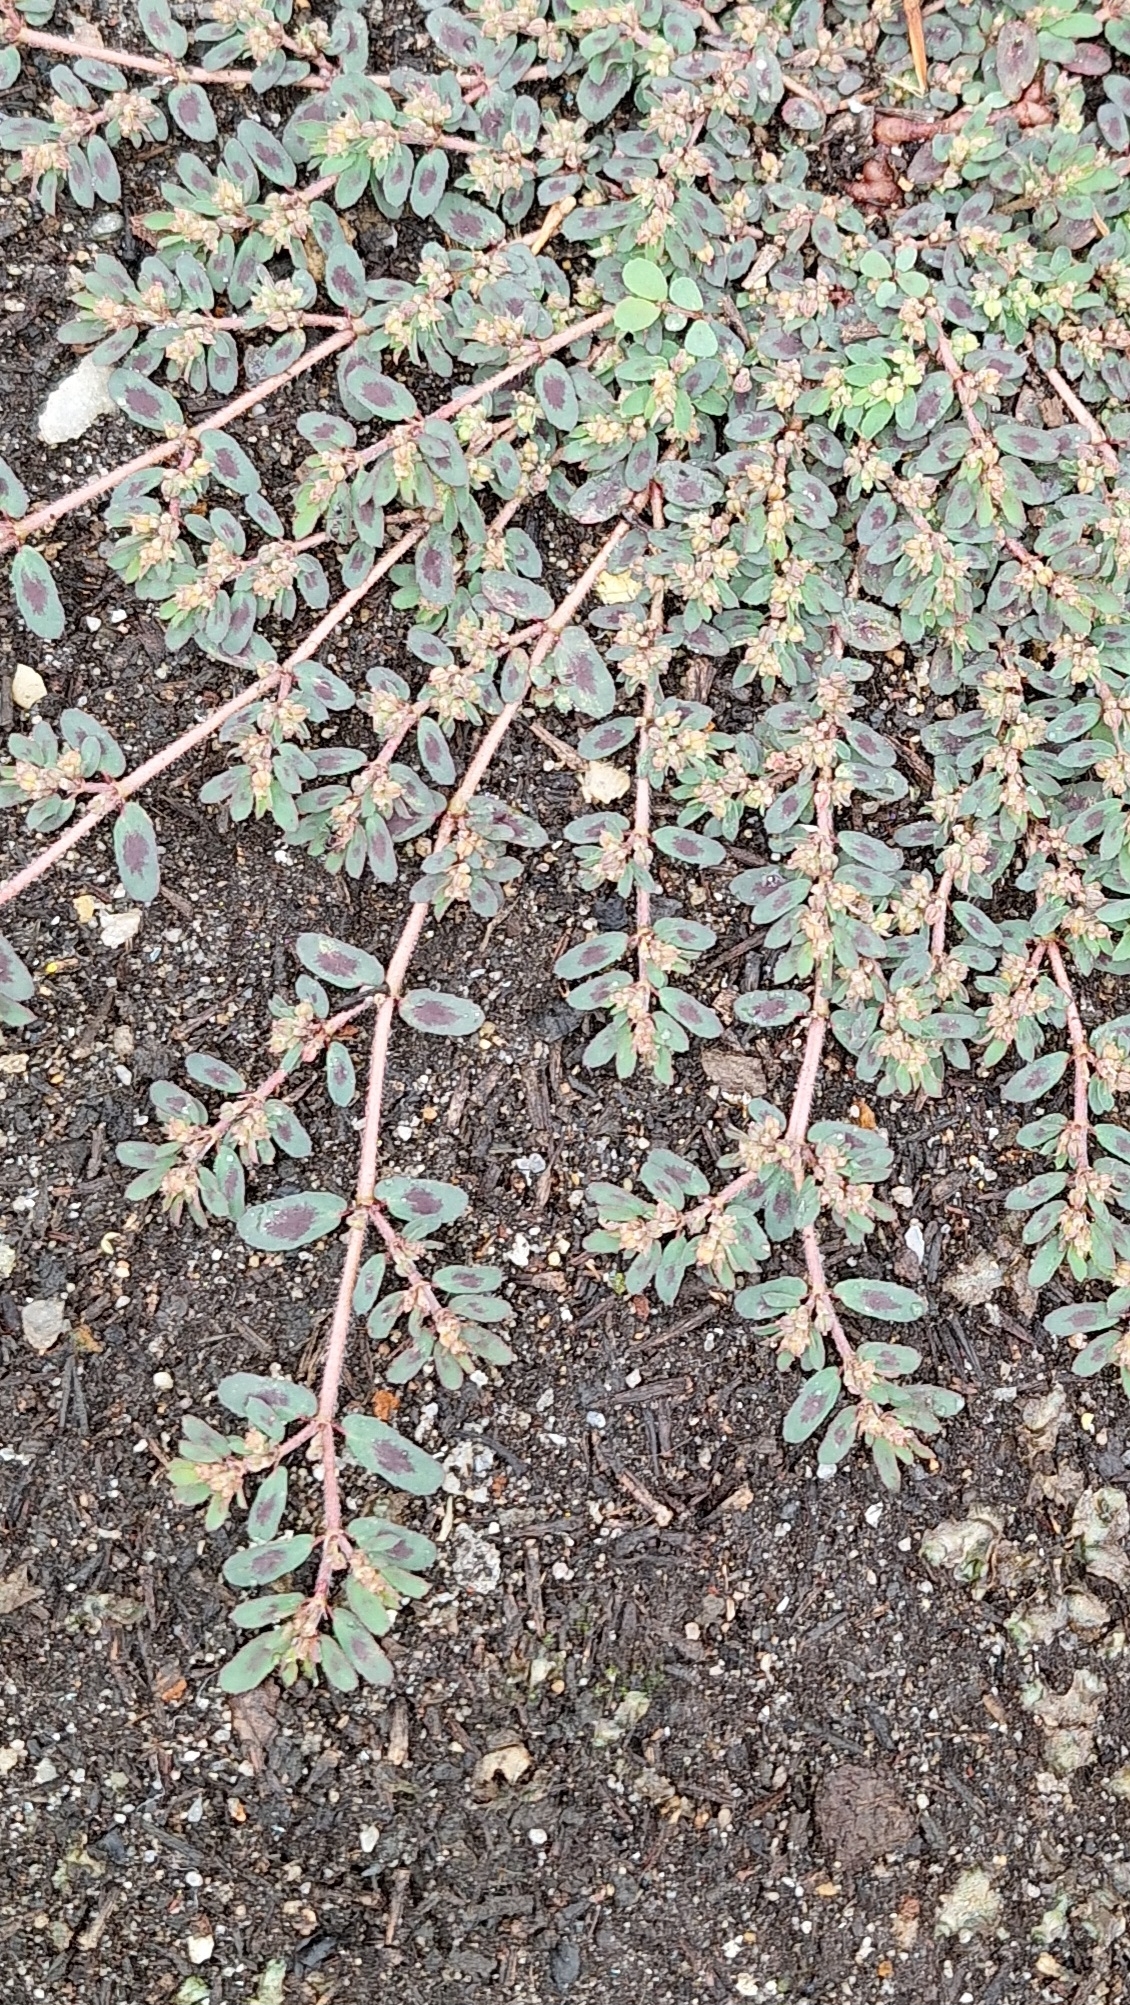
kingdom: Plantae
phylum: Tracheophyta
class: Magnoliopsida
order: Malpighiales
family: Euphorbiaceae
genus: Euphorbia
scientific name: Euphorbia maculata
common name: Spotted spurge
